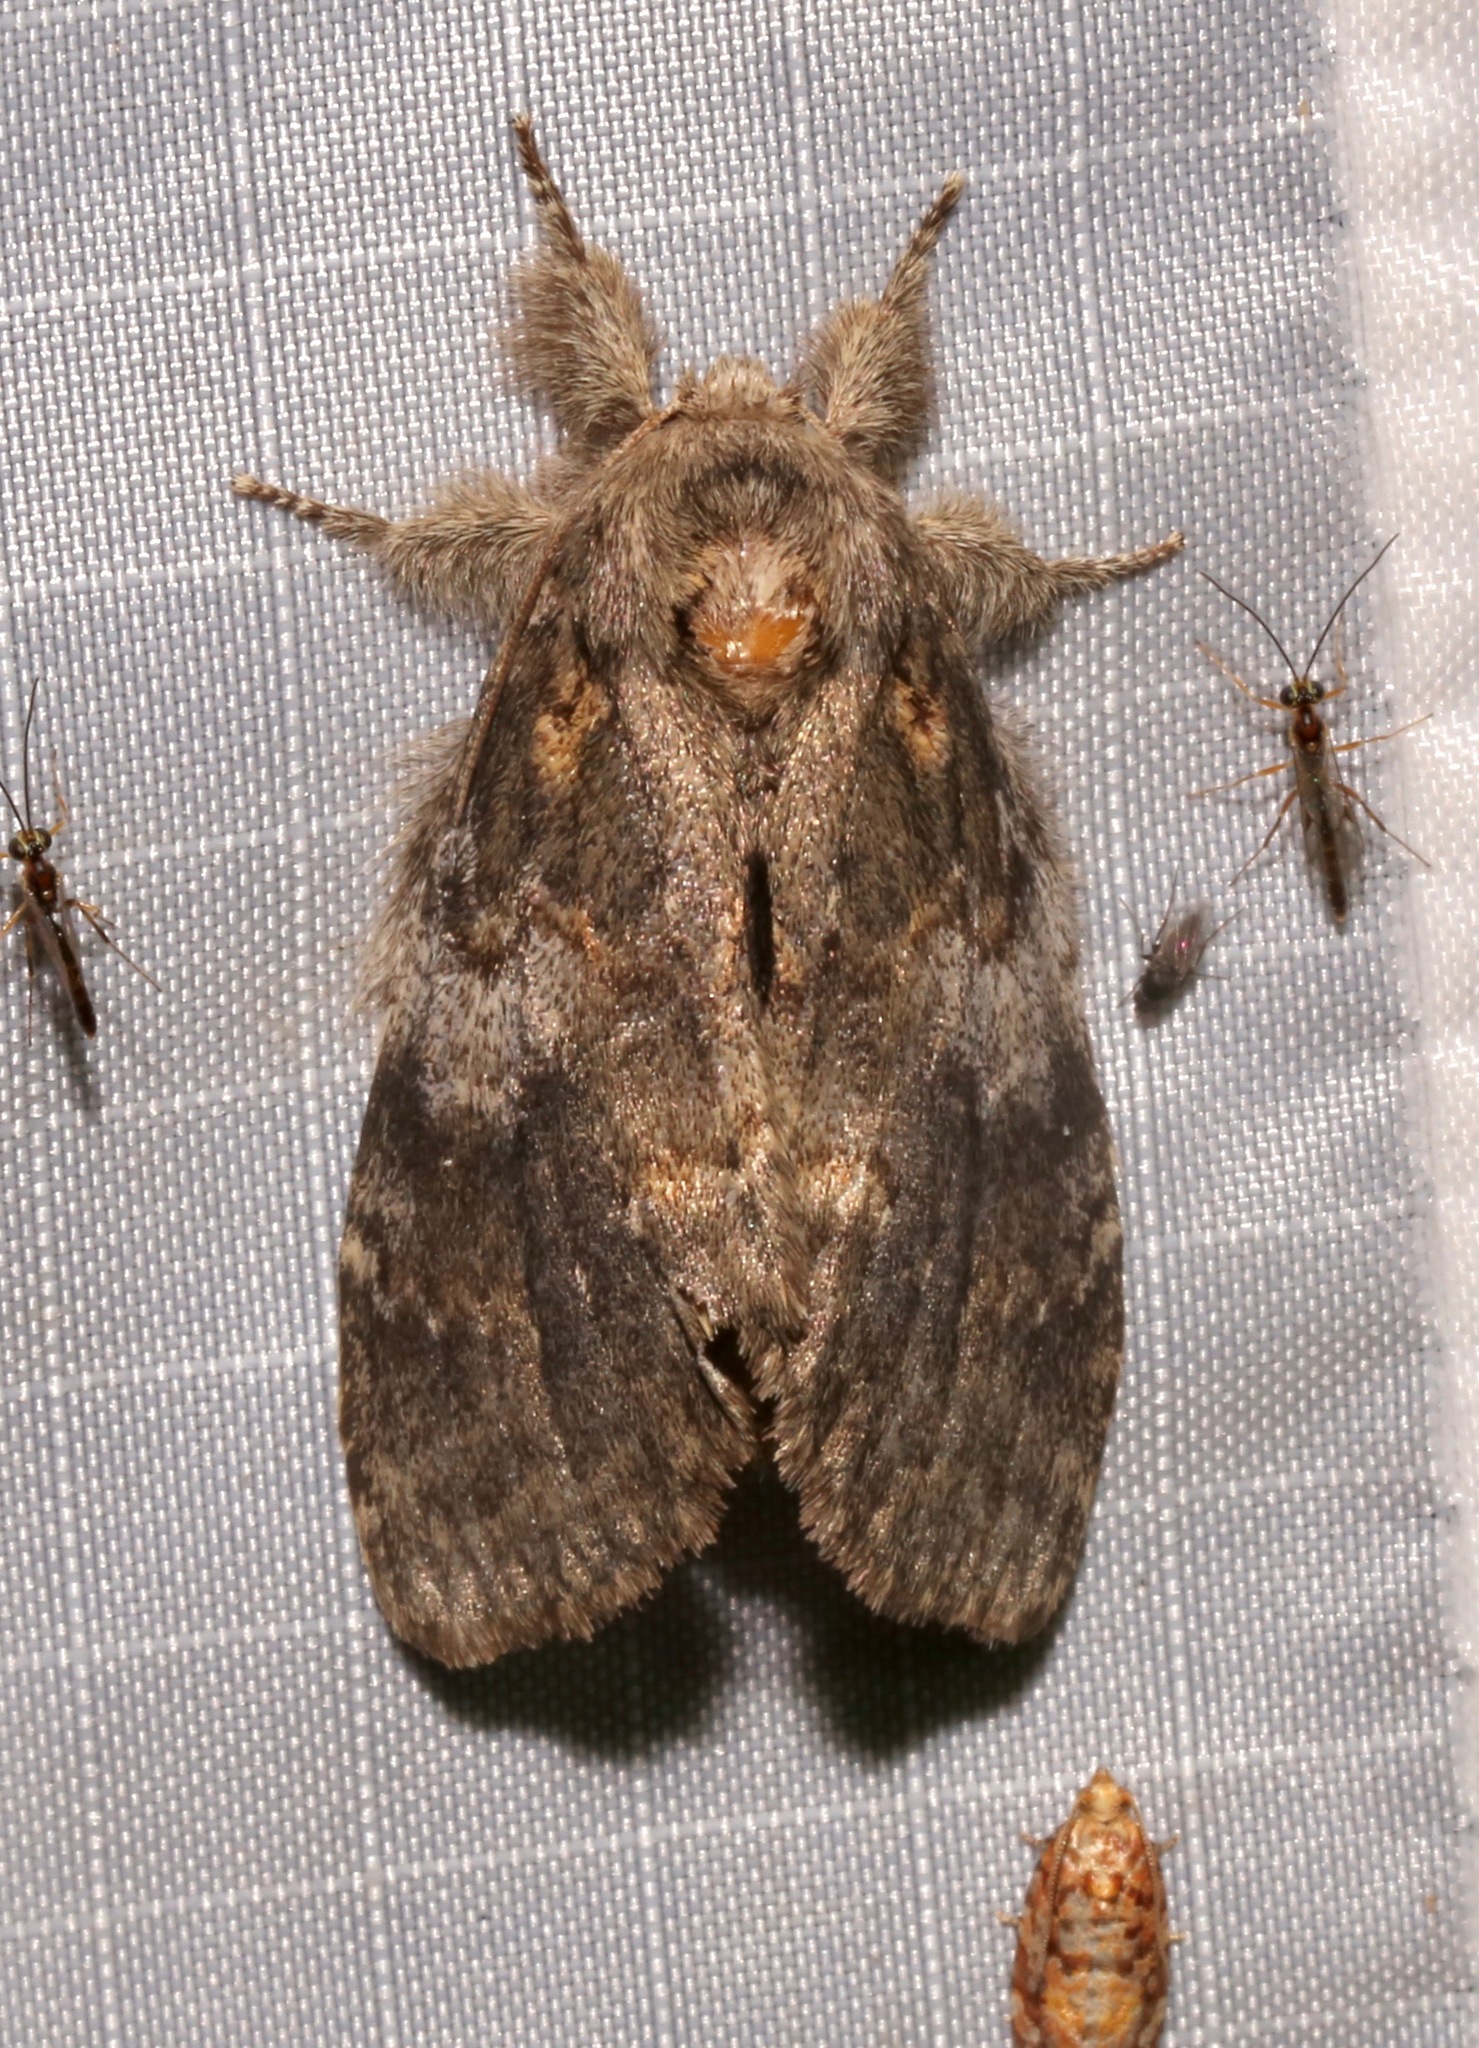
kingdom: Animalia
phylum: Arthropoda
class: Insecta
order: Lepidoptera
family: Notodontidae
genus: Peridea
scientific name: Peridea angulosa
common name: Angulose prominent
